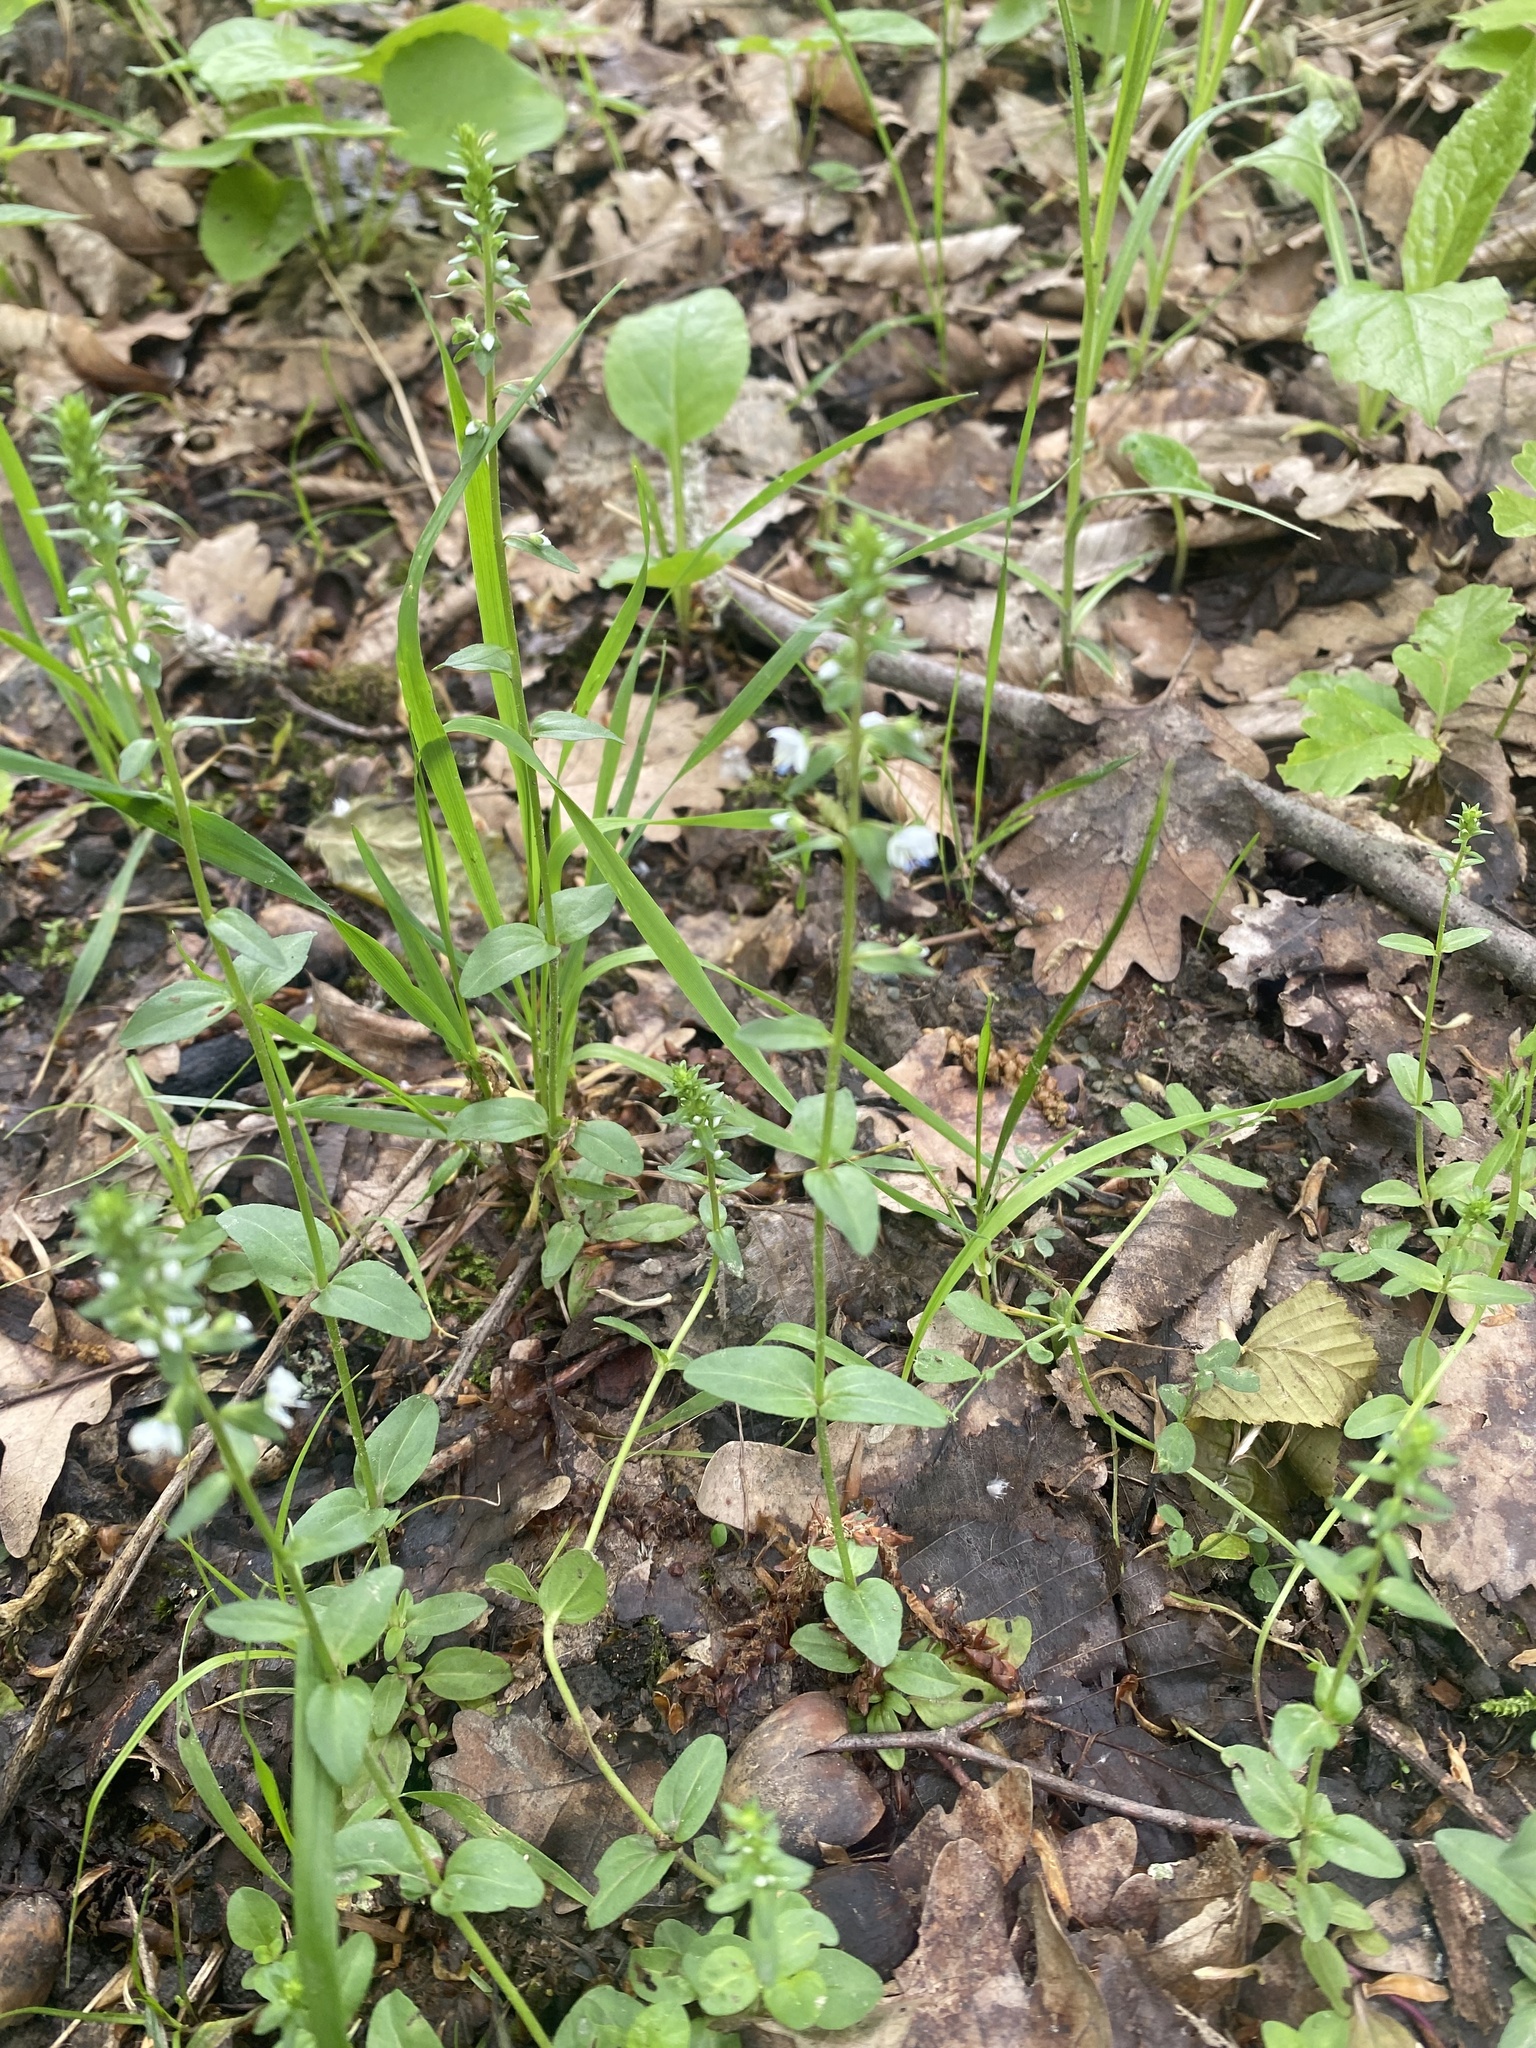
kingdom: Plantae
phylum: Tracheophyta
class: Magnoliopsida
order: Lamiales
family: Plantaginaceae
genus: Veronica
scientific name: Veronica serpyllifolia
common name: Thyme-leaved speedwell
